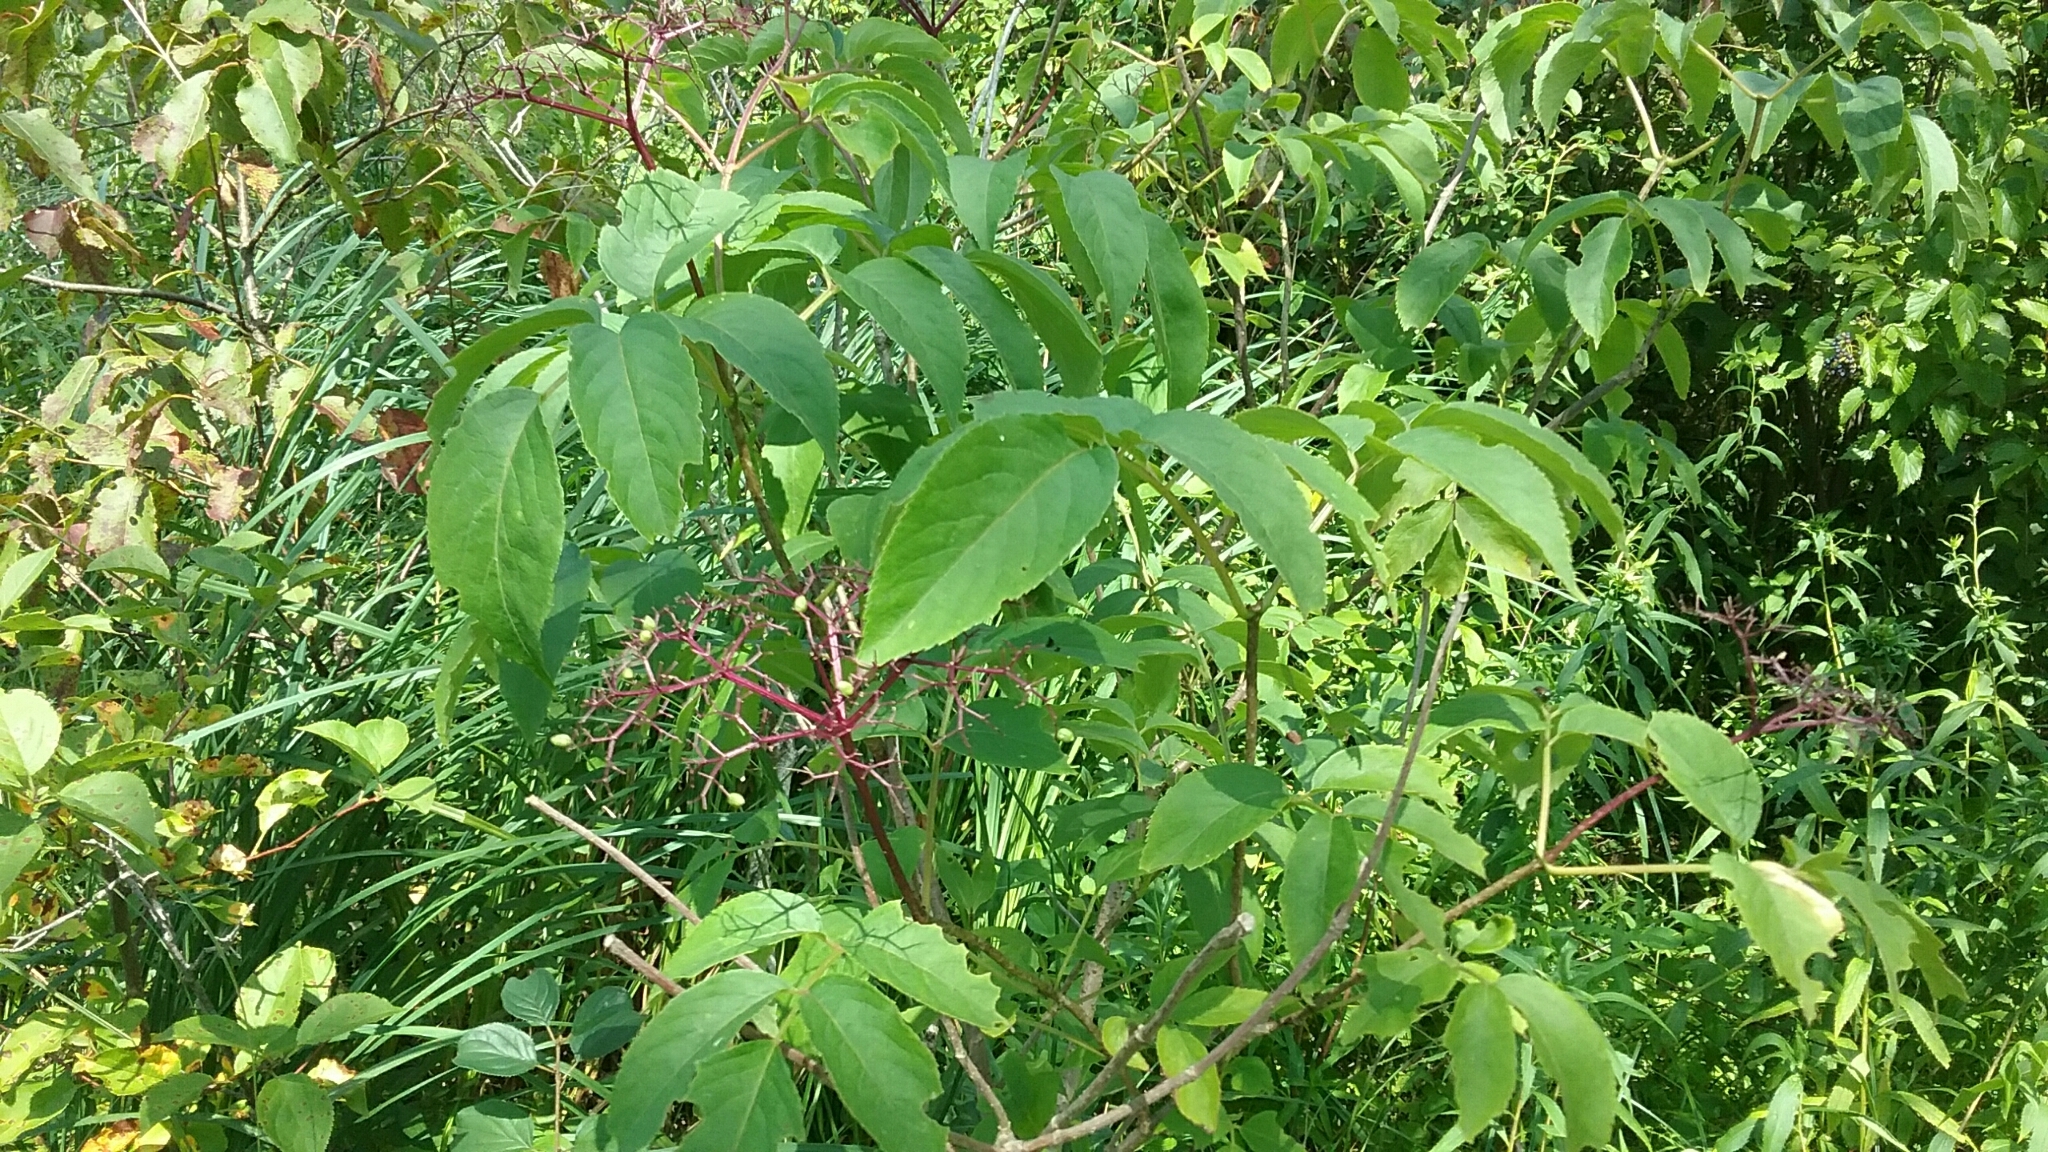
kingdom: Plantae
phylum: Tracheophyta
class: Magnoliopsida
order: Dipsacales
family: Viburnaceae
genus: Sambucus
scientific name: Sambucus canadensis
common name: American elder
